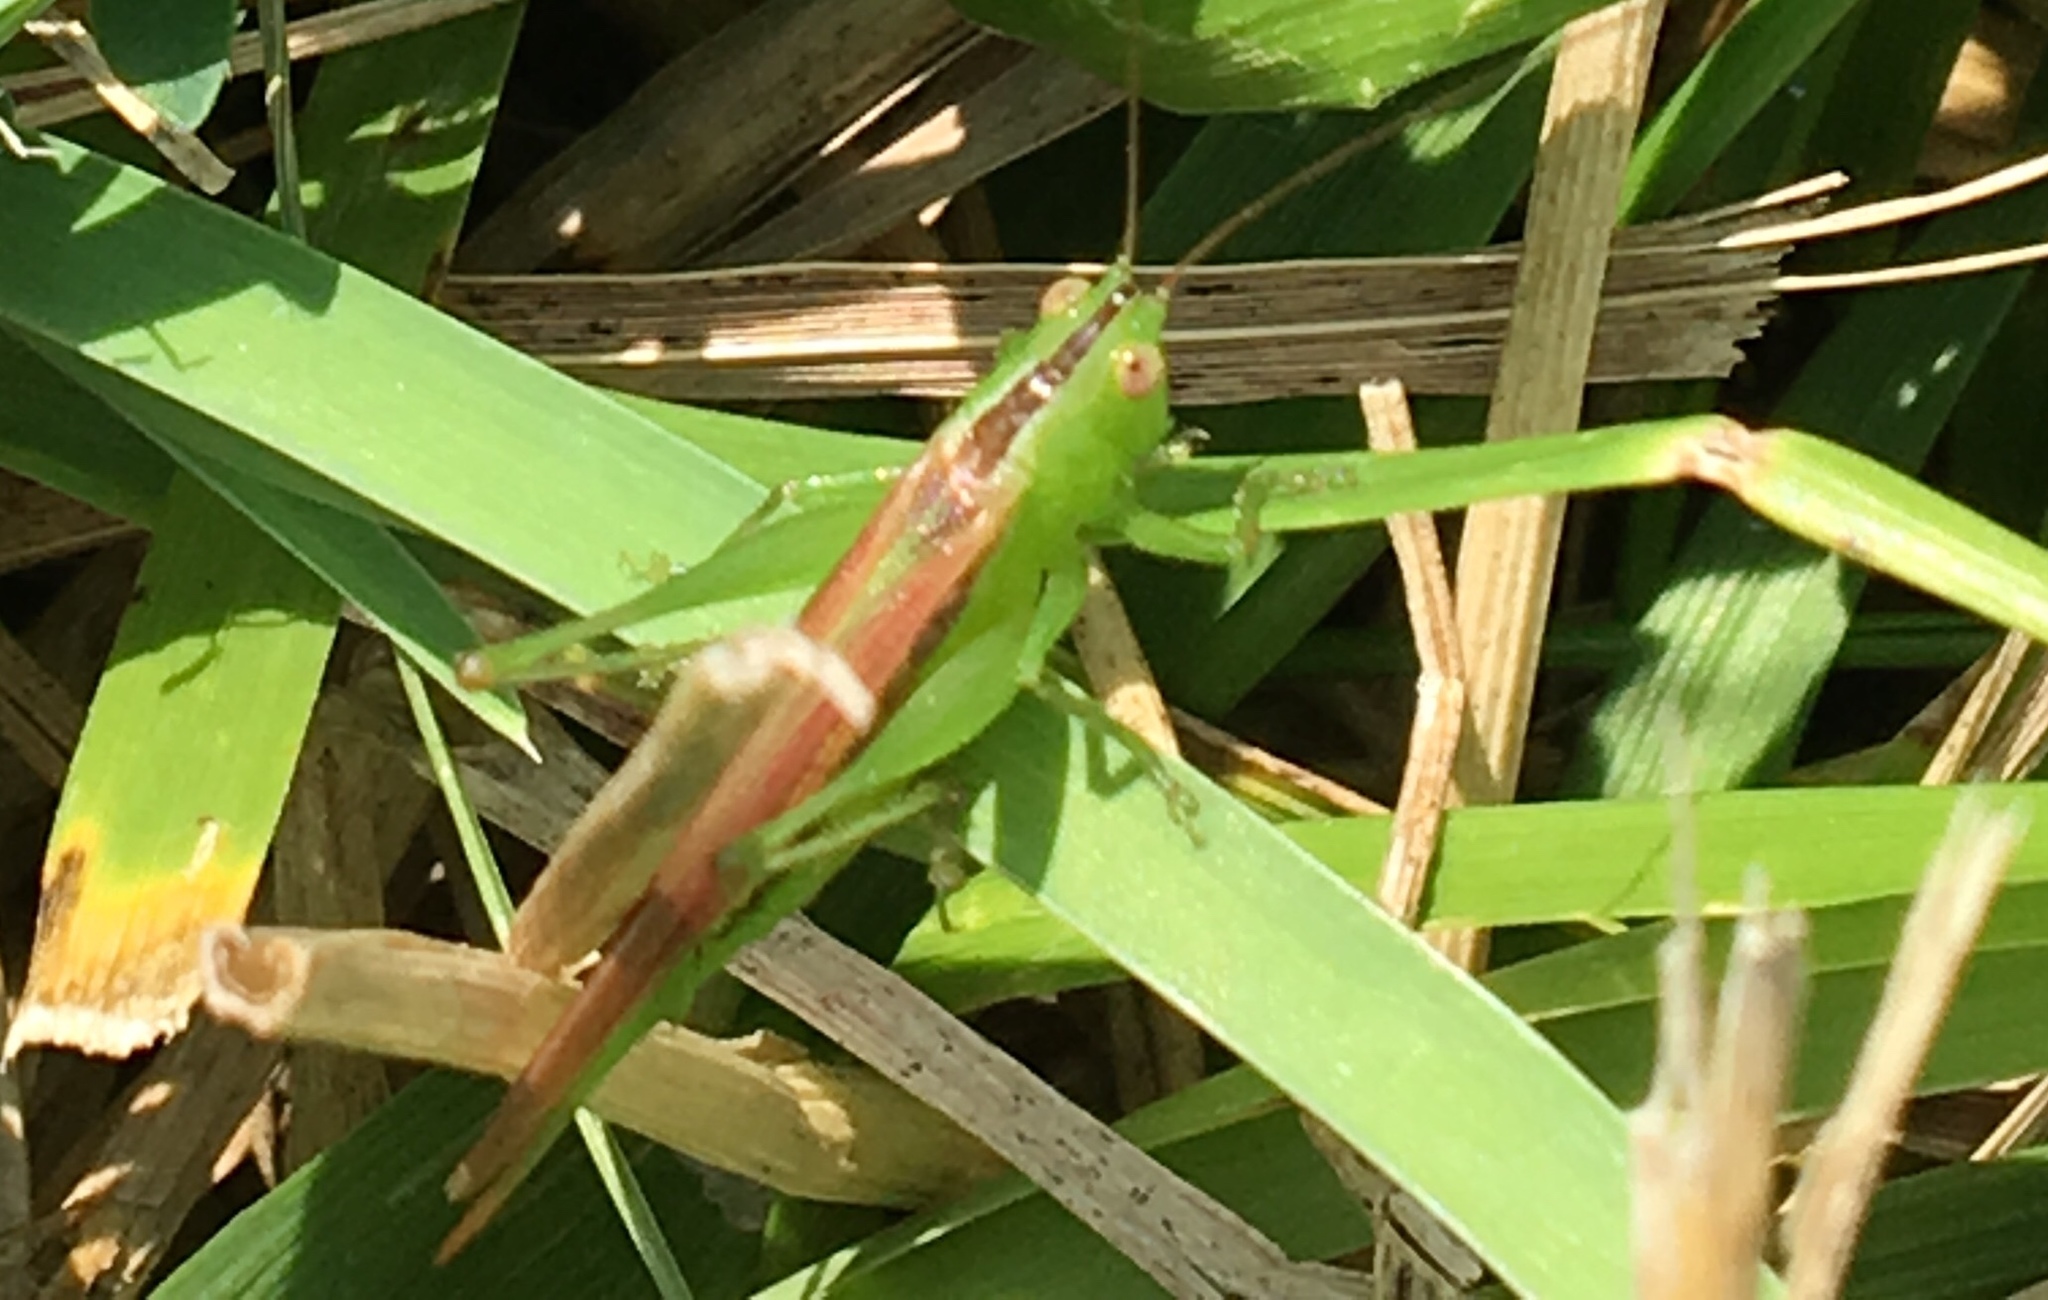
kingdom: Animalia
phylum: Arthropoda
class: Insecta
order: Orthoptera
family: Tettigoniidae
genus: Conocephalus
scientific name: Conocephalus fasciatus
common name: Slender meadow katydid
